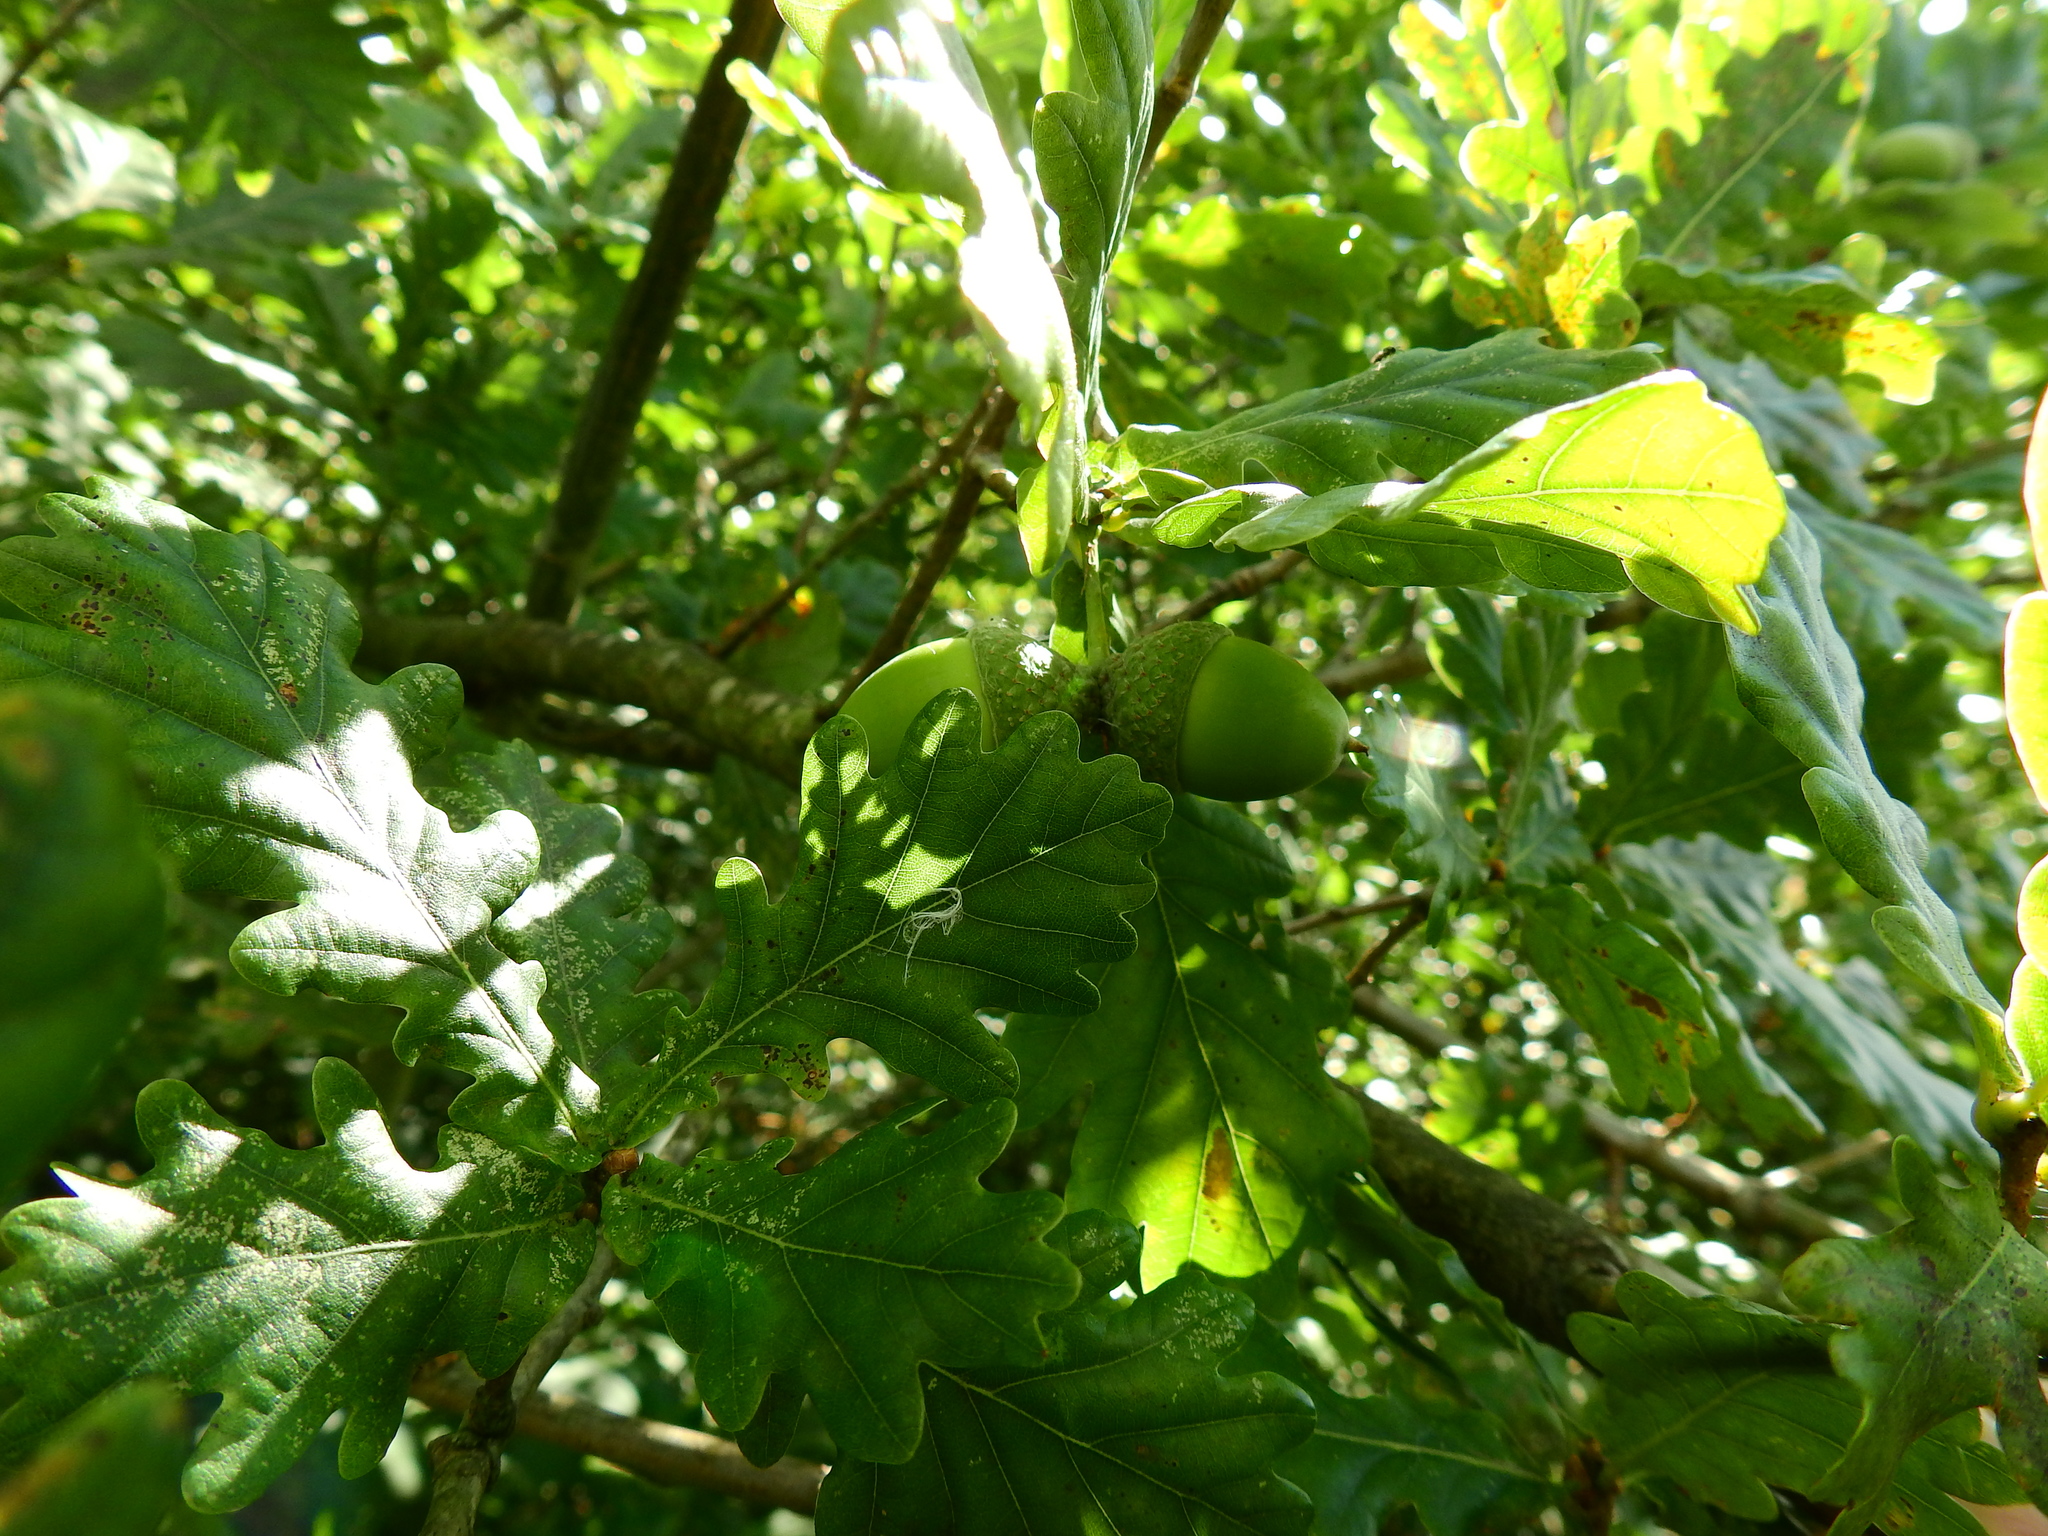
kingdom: Plantae
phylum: Tracheophyta
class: Magnoliopsida
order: Fagales
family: Fagaceae
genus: Quercus
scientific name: Quercus robur
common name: Pedunculate oak
